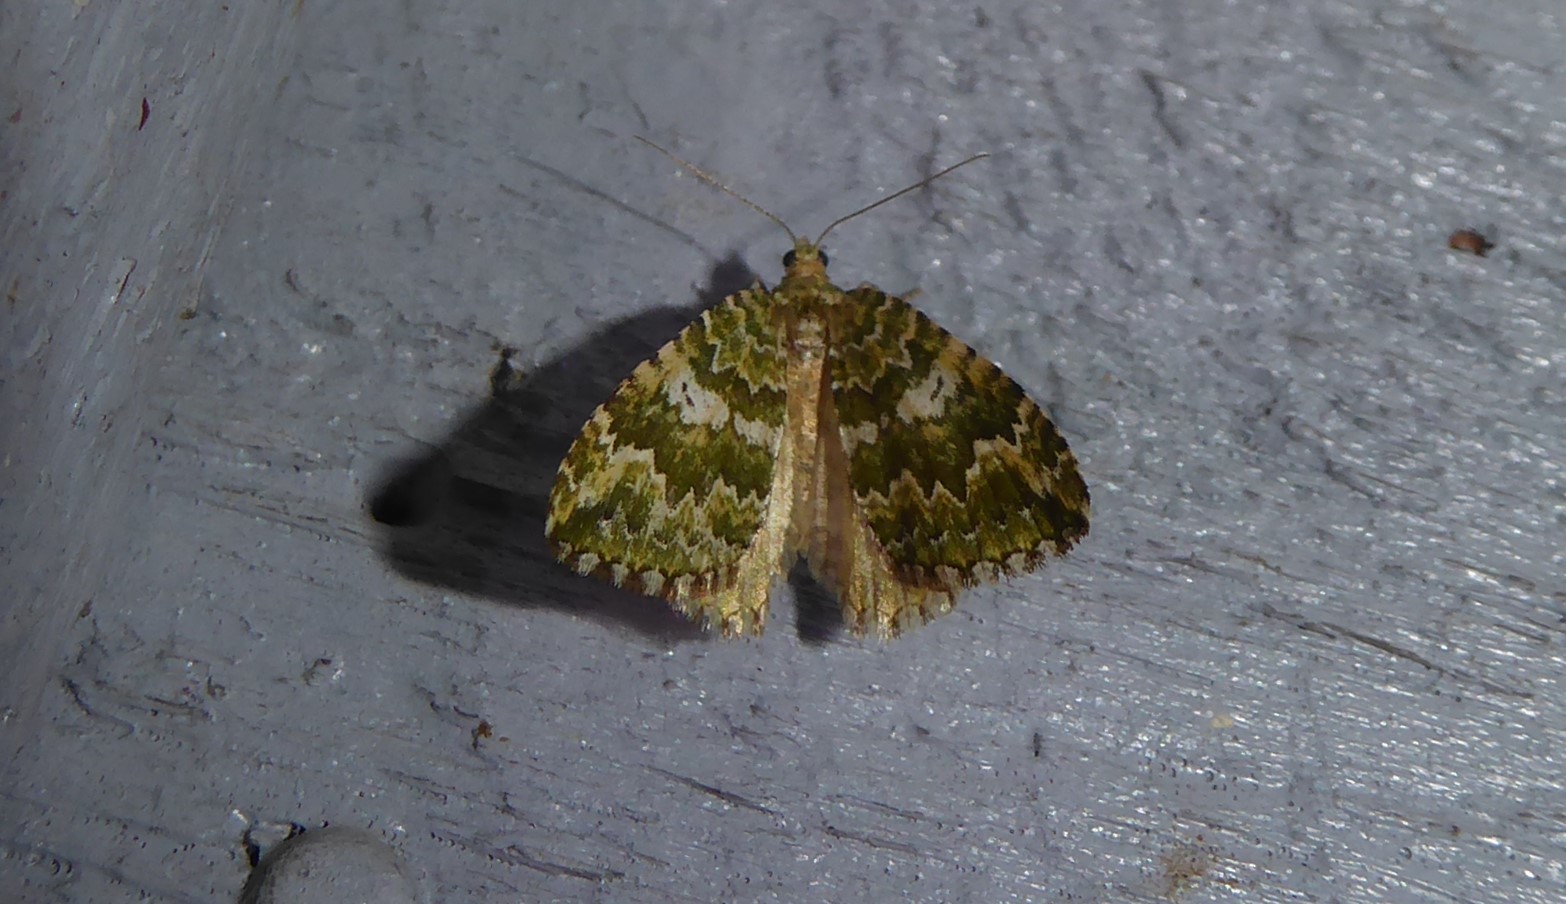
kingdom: Animalia
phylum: Arthropoda
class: Insecta
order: Lepidoptera
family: Geometridae
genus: Asaphodes
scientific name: Asaphodes beata
